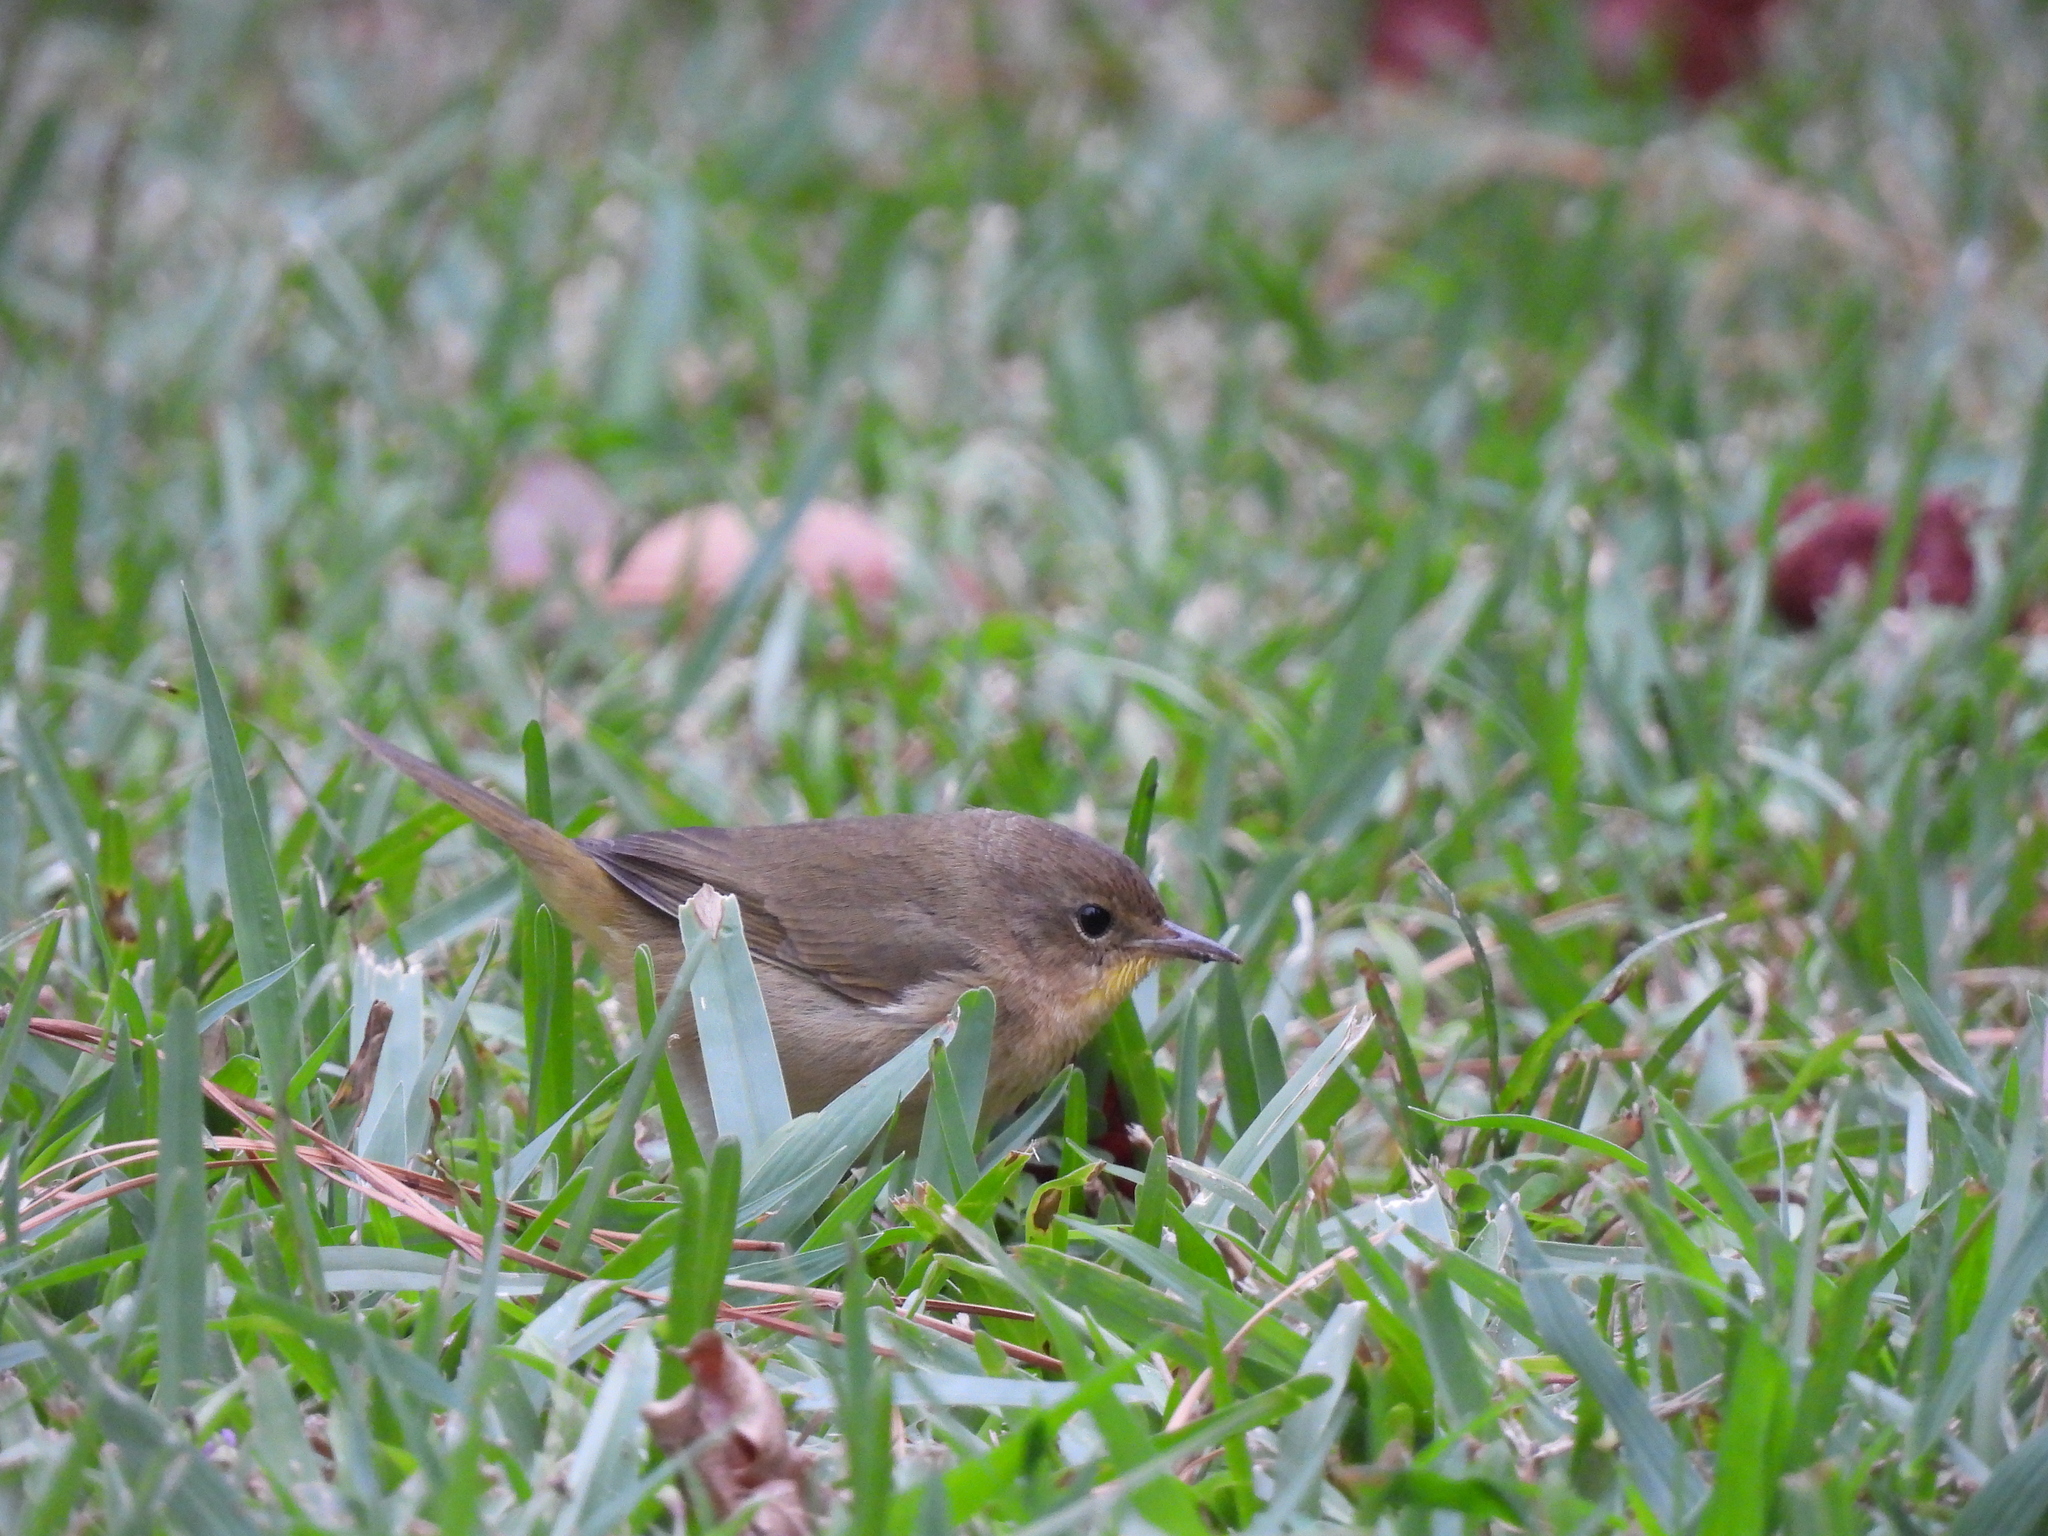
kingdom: Animalia
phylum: Chordata
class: Aves
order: Passeriformes
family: Parulidae
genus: Geothlypis
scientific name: Geothlypis trichas
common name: Common yellowthroat
